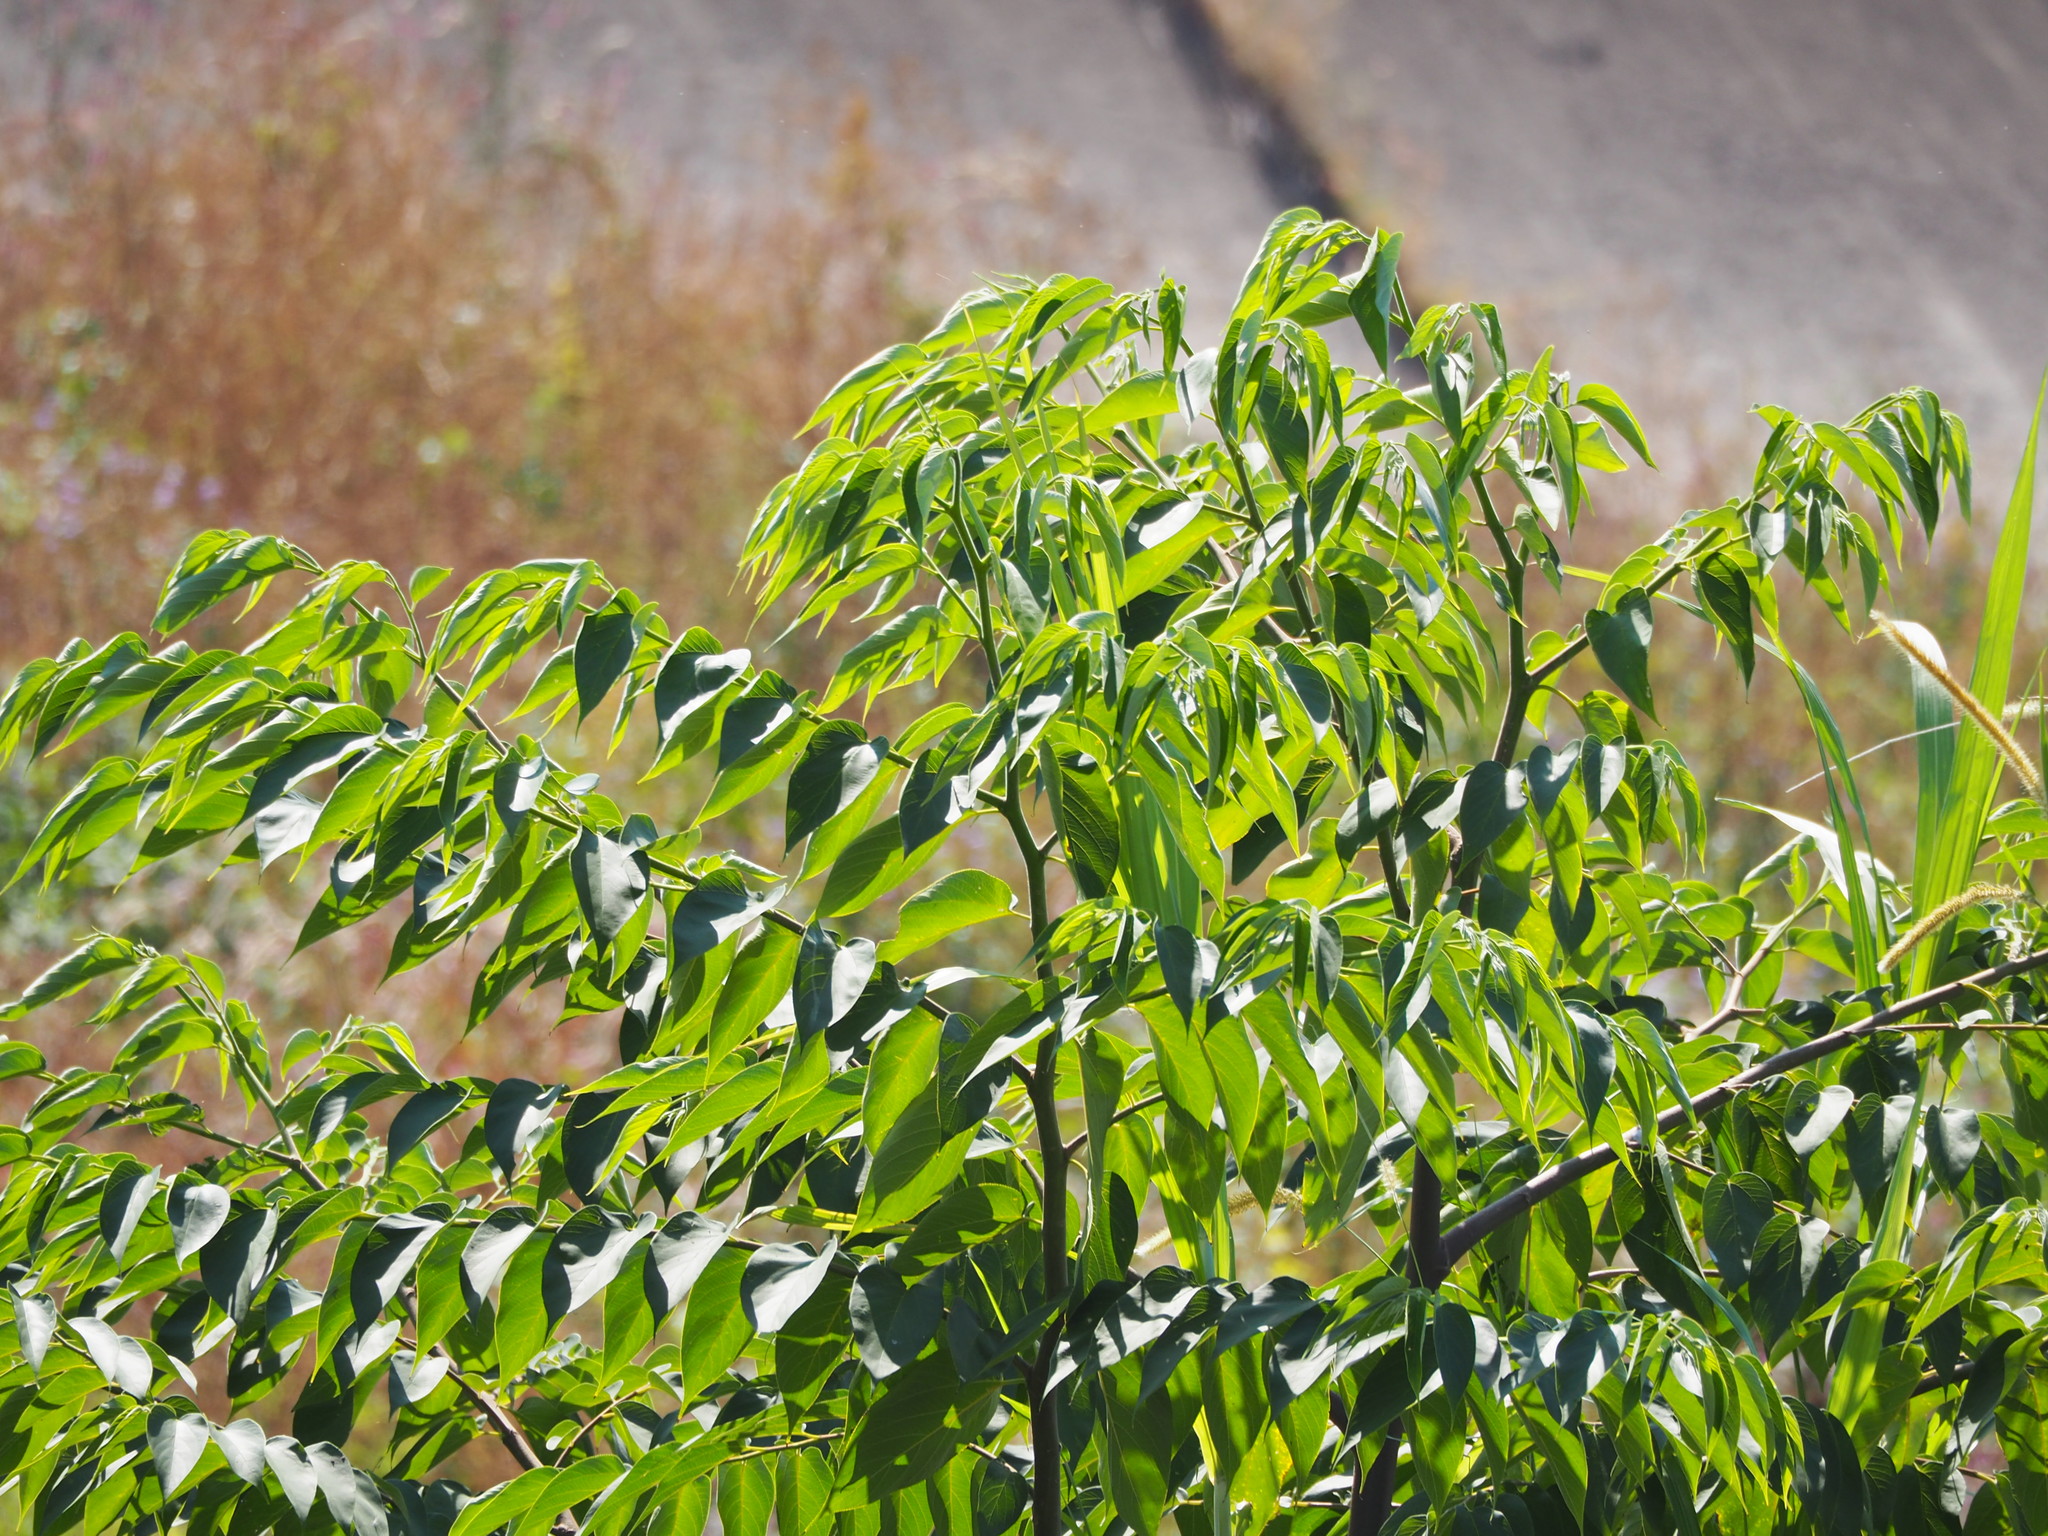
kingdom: Plantae
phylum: Tracheophyta
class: Magnoliopsida
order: Rosales
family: Cannabaceae
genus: Trema
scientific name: Trema orientale
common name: Indian charcoal tree
